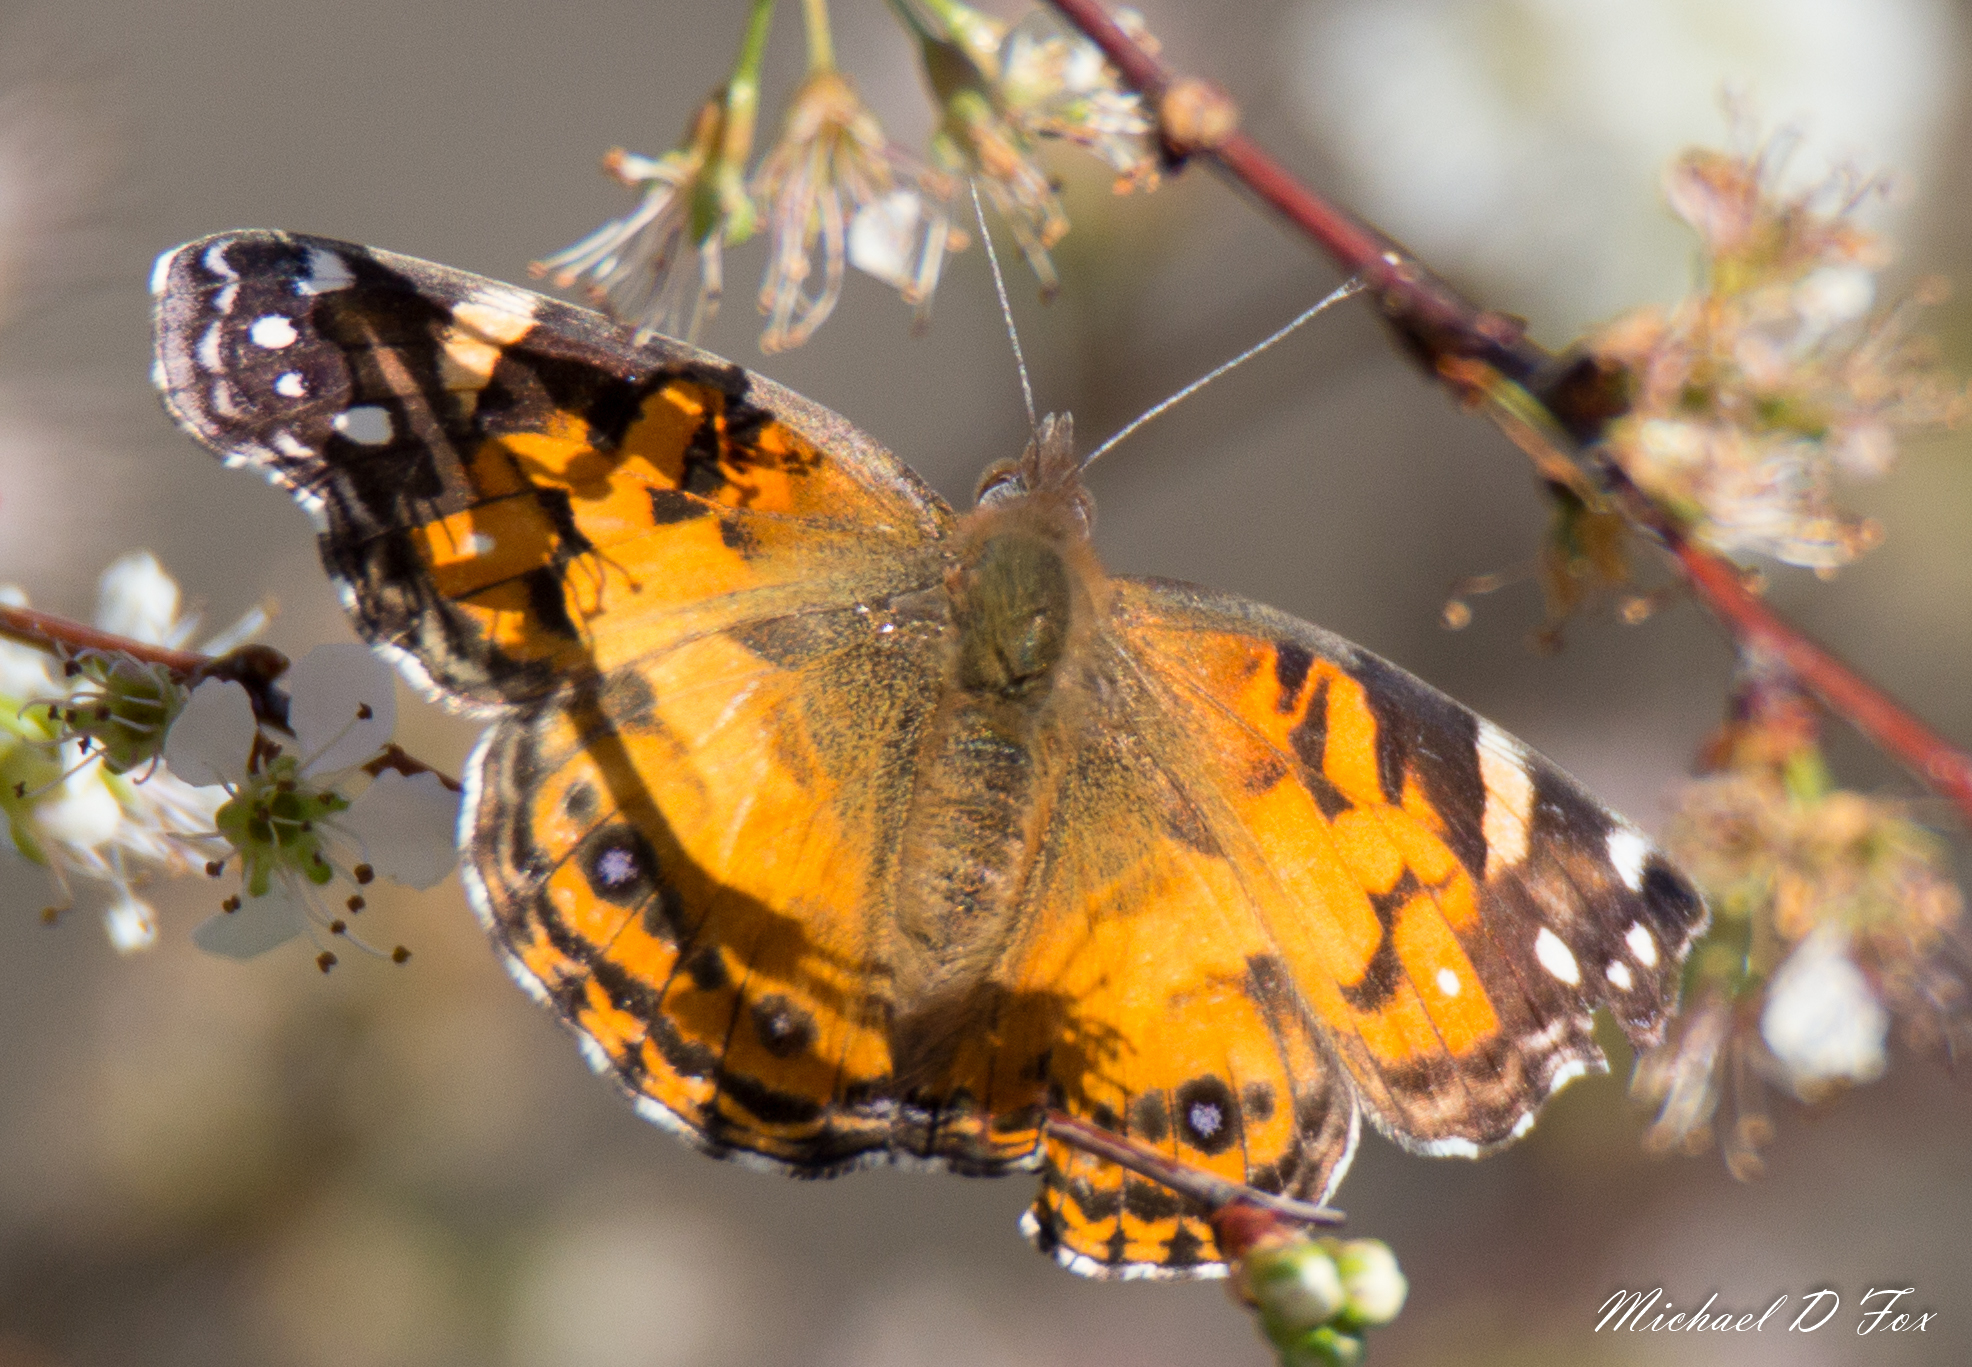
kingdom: Animalia
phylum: Arthropoda
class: Insecta
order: Lepidoptera
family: Nymphalidae
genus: Vanessa
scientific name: Vanessa virginiensis
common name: American lady
